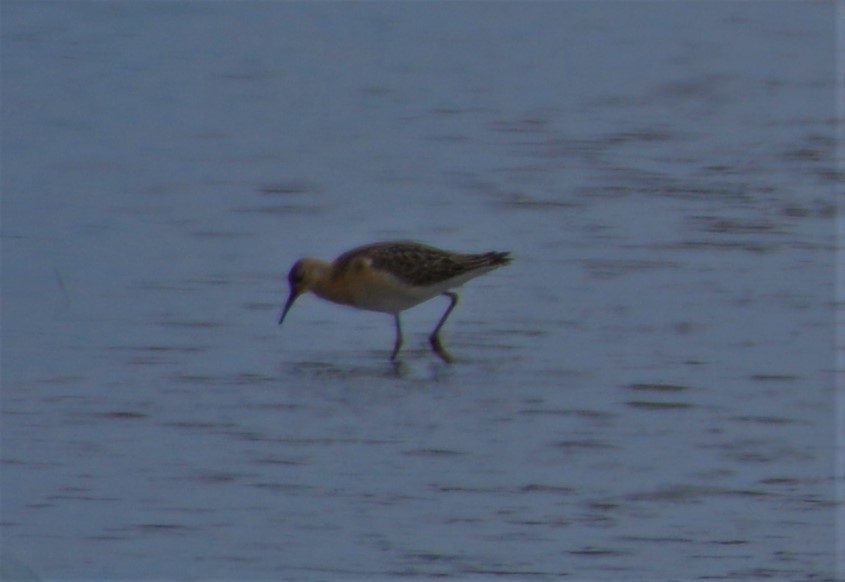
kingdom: Animalia
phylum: Chordata
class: Aves
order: Charadriiformes
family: Scolopacidae
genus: Calidris
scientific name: Calidris pugnax
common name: Ruff
